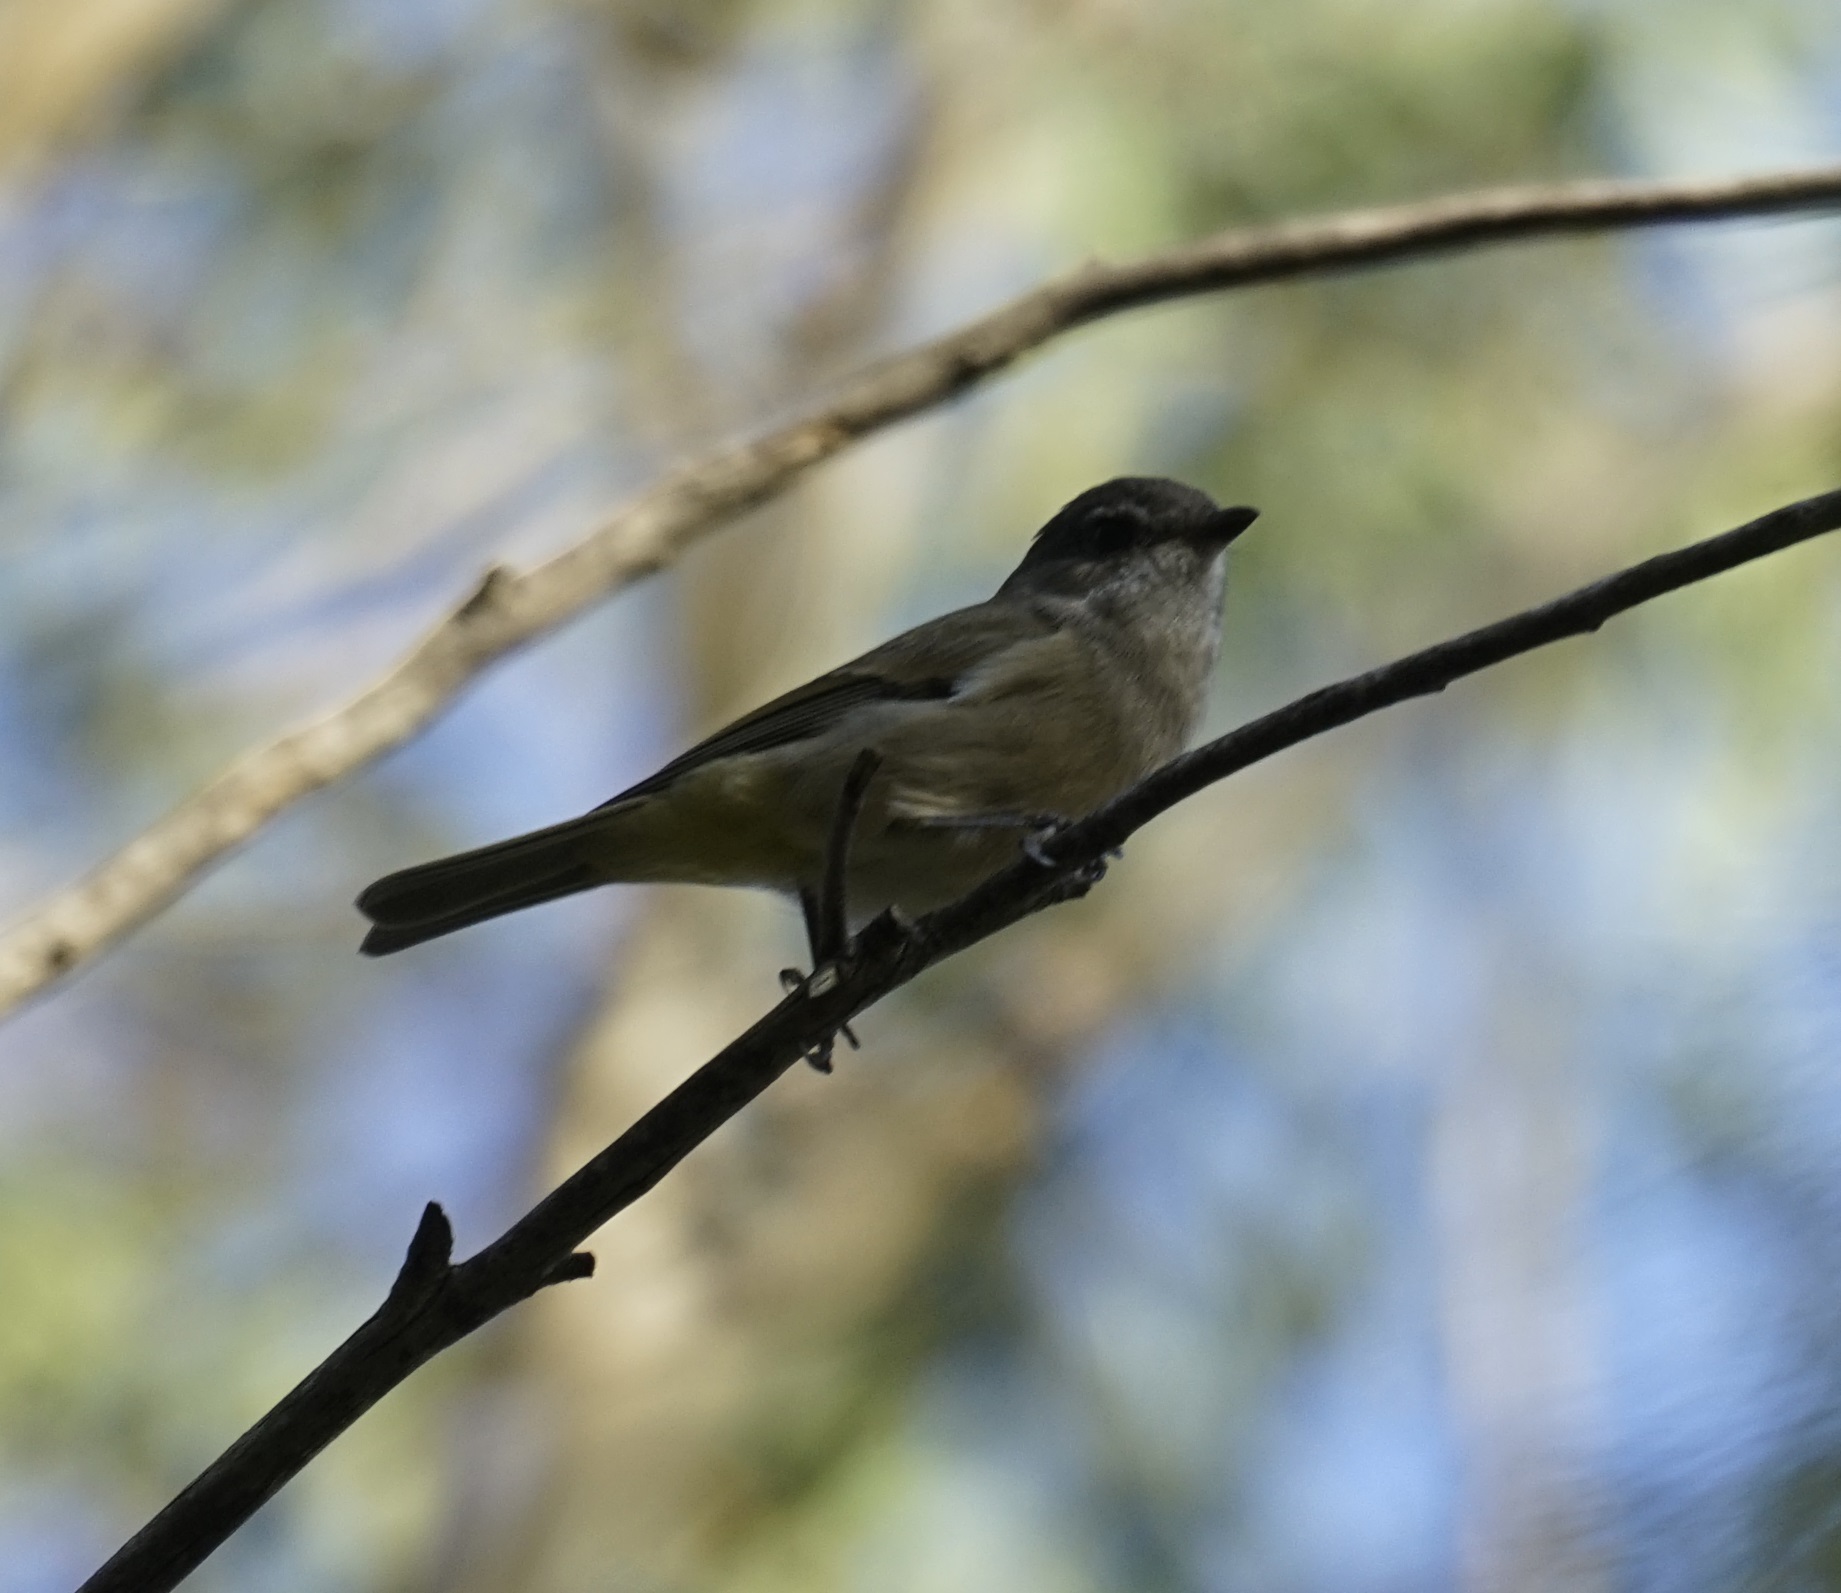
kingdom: Animalia
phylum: Chordata
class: Aves
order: Passeriformes
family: Pachycephalidae
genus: Pachycephala
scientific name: Pachycephala pectoralis
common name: Australian golden whistler
